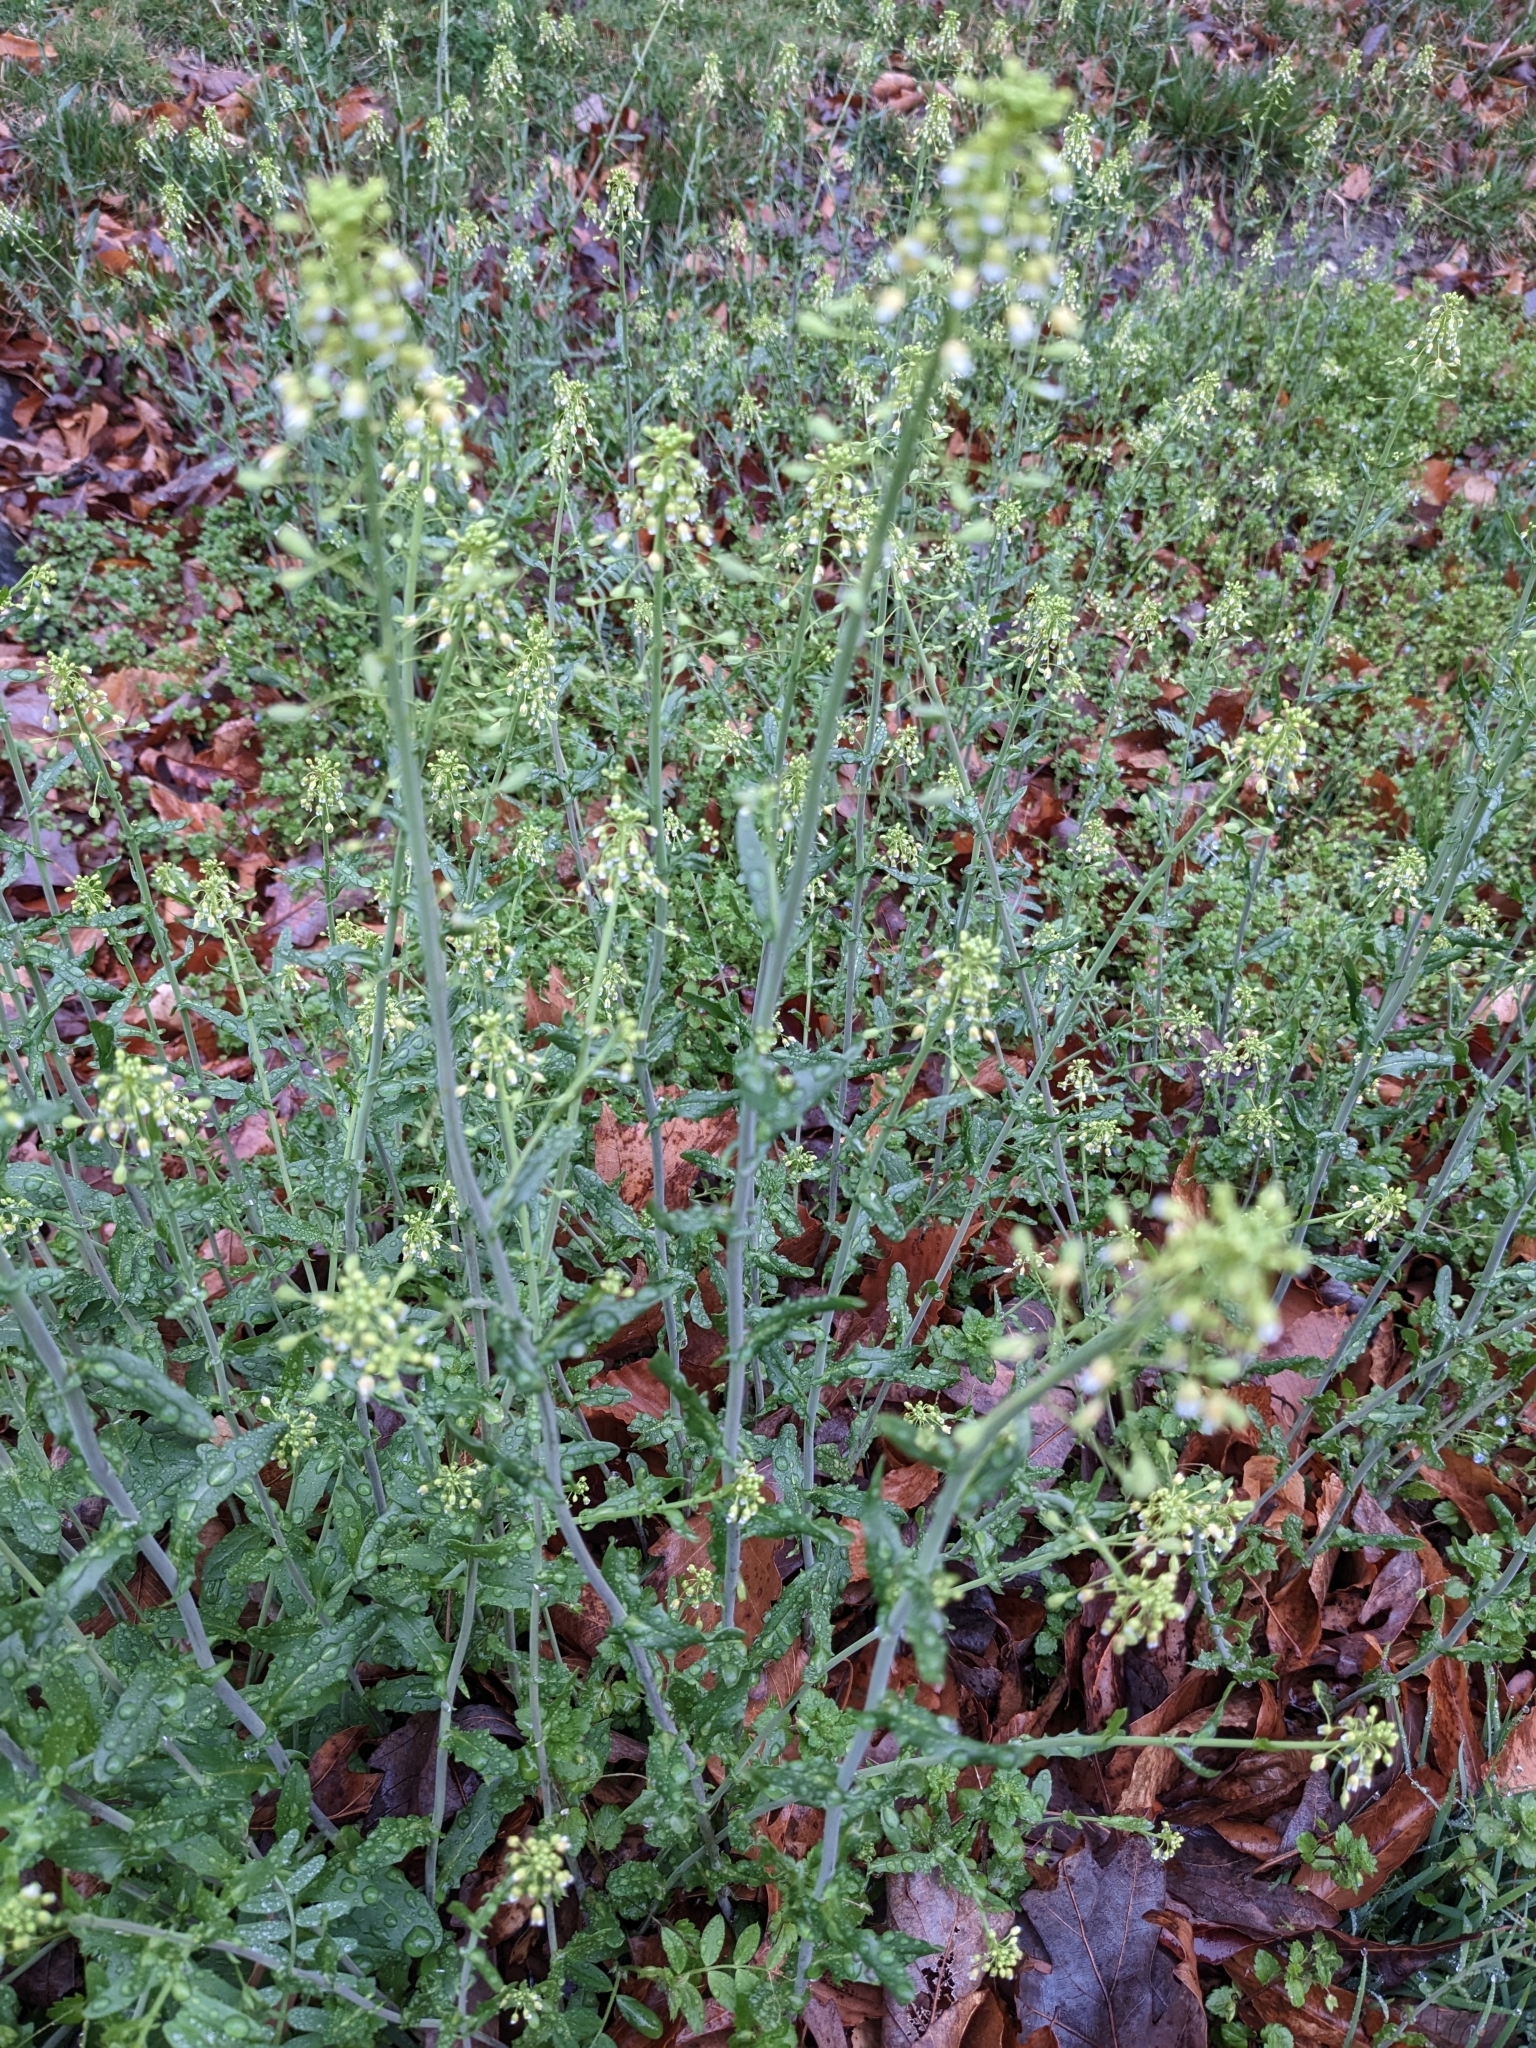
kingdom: Plantae
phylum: Tracheophyta
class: Magnoliopsida
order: Brassicales
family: Brassicaceae
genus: Mummenhoffia
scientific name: Mummenhoffia alliacea
